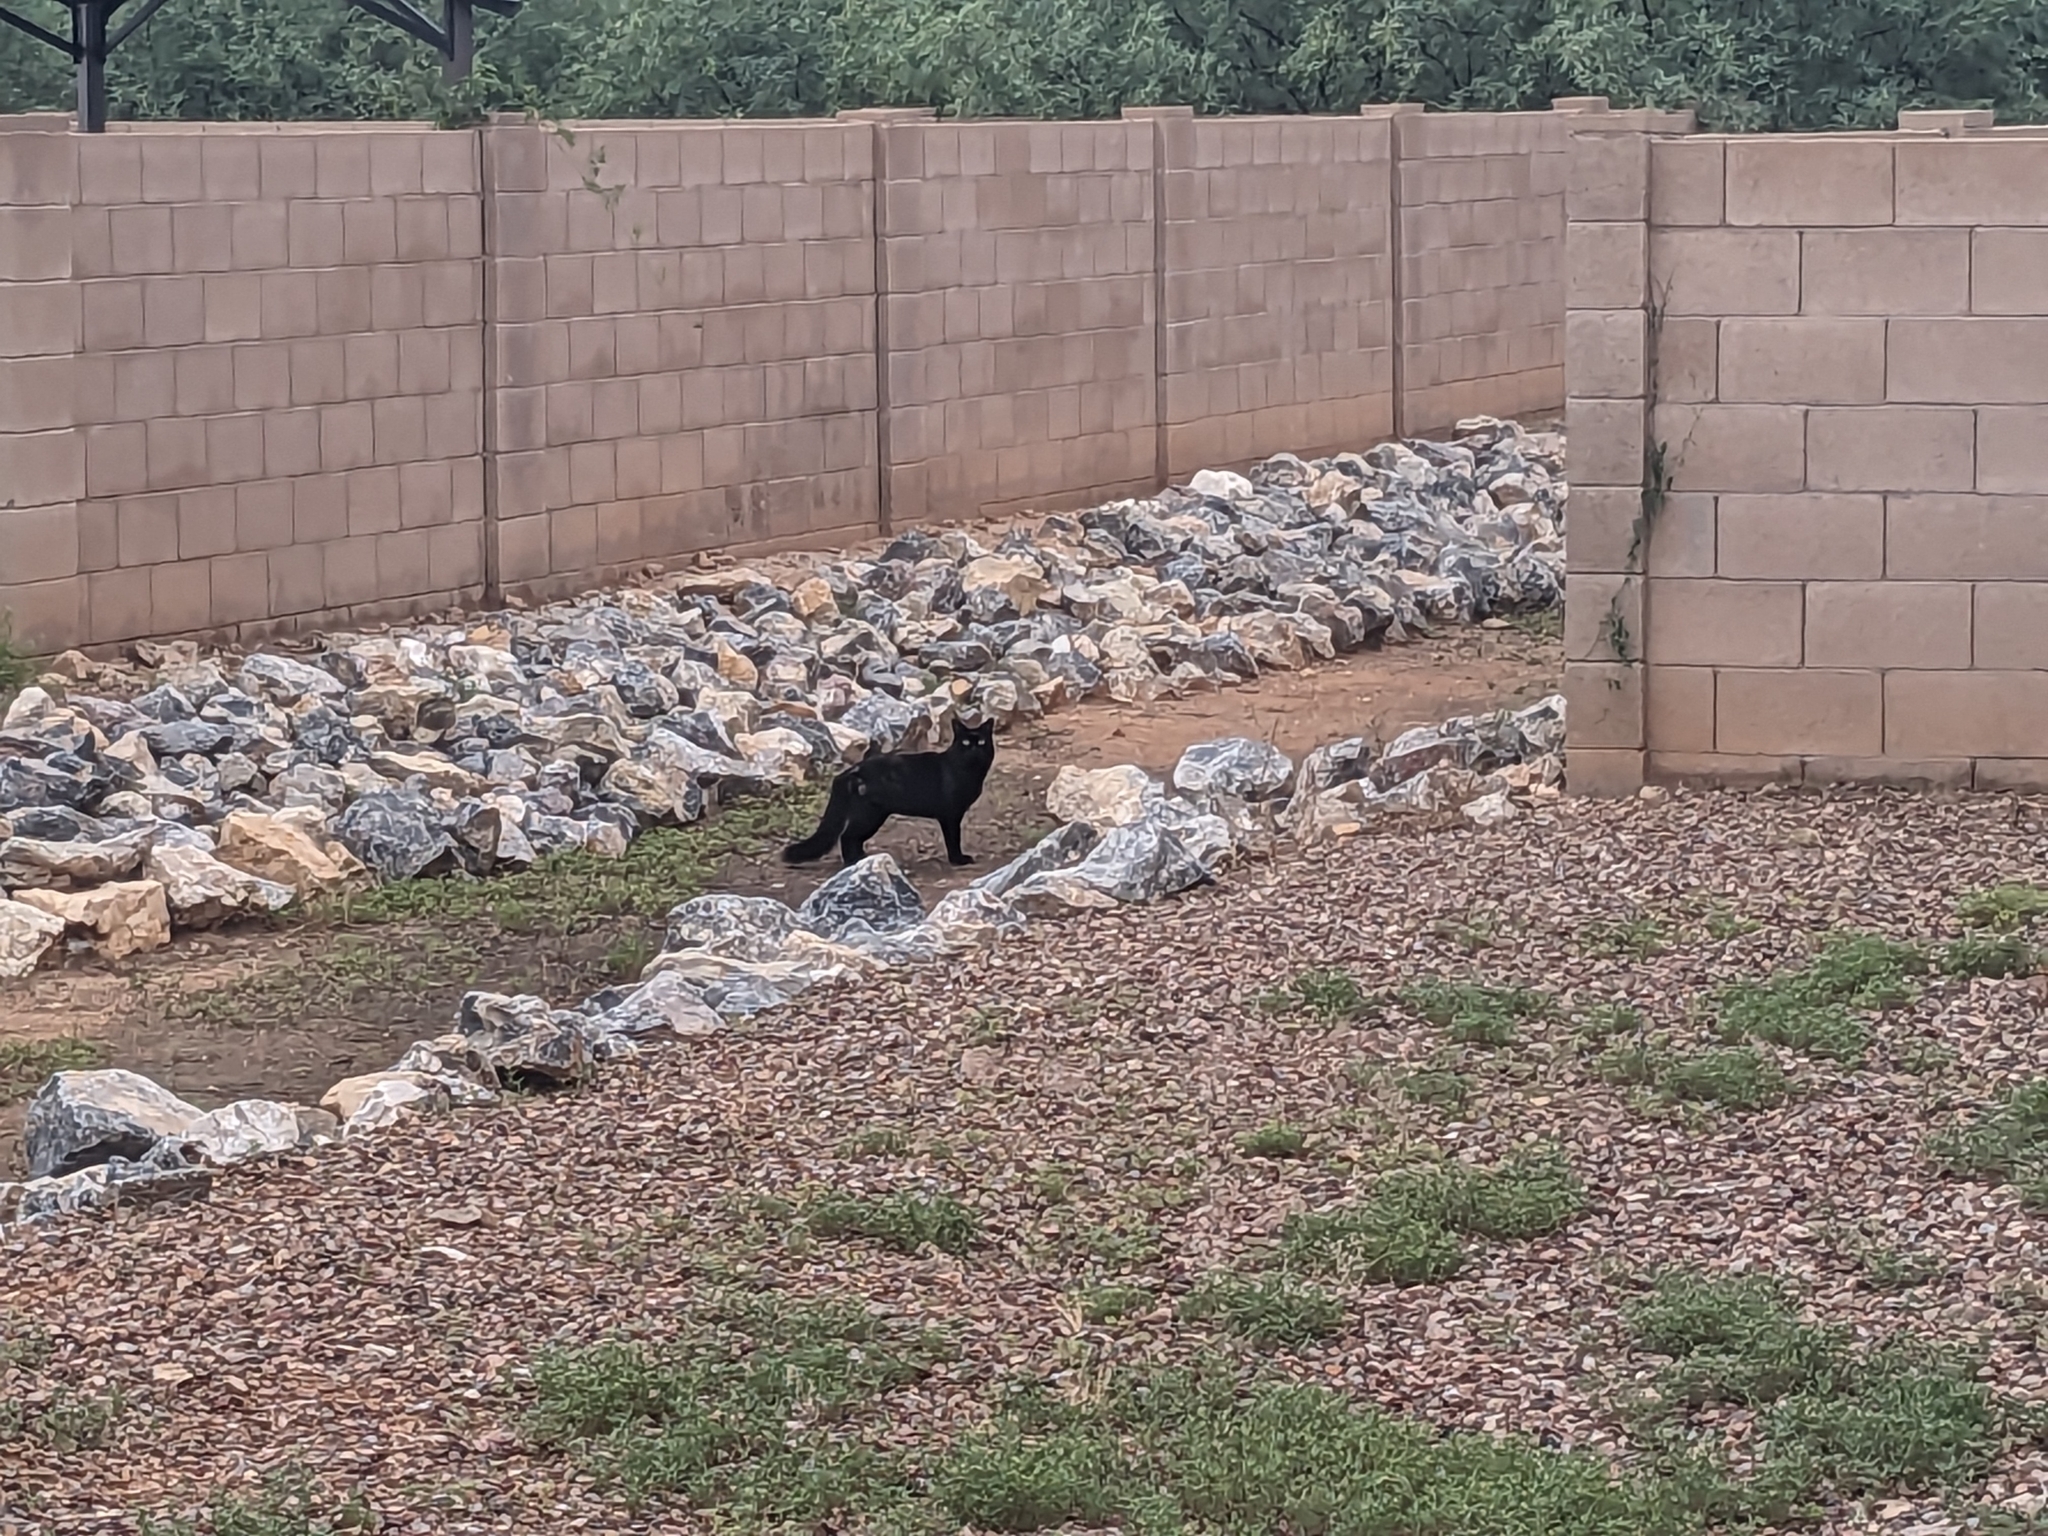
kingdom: Animalia
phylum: Chordata
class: Mammalia
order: Carnivora
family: Felidae
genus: Felis
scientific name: Felis catus
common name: Domestic cat
